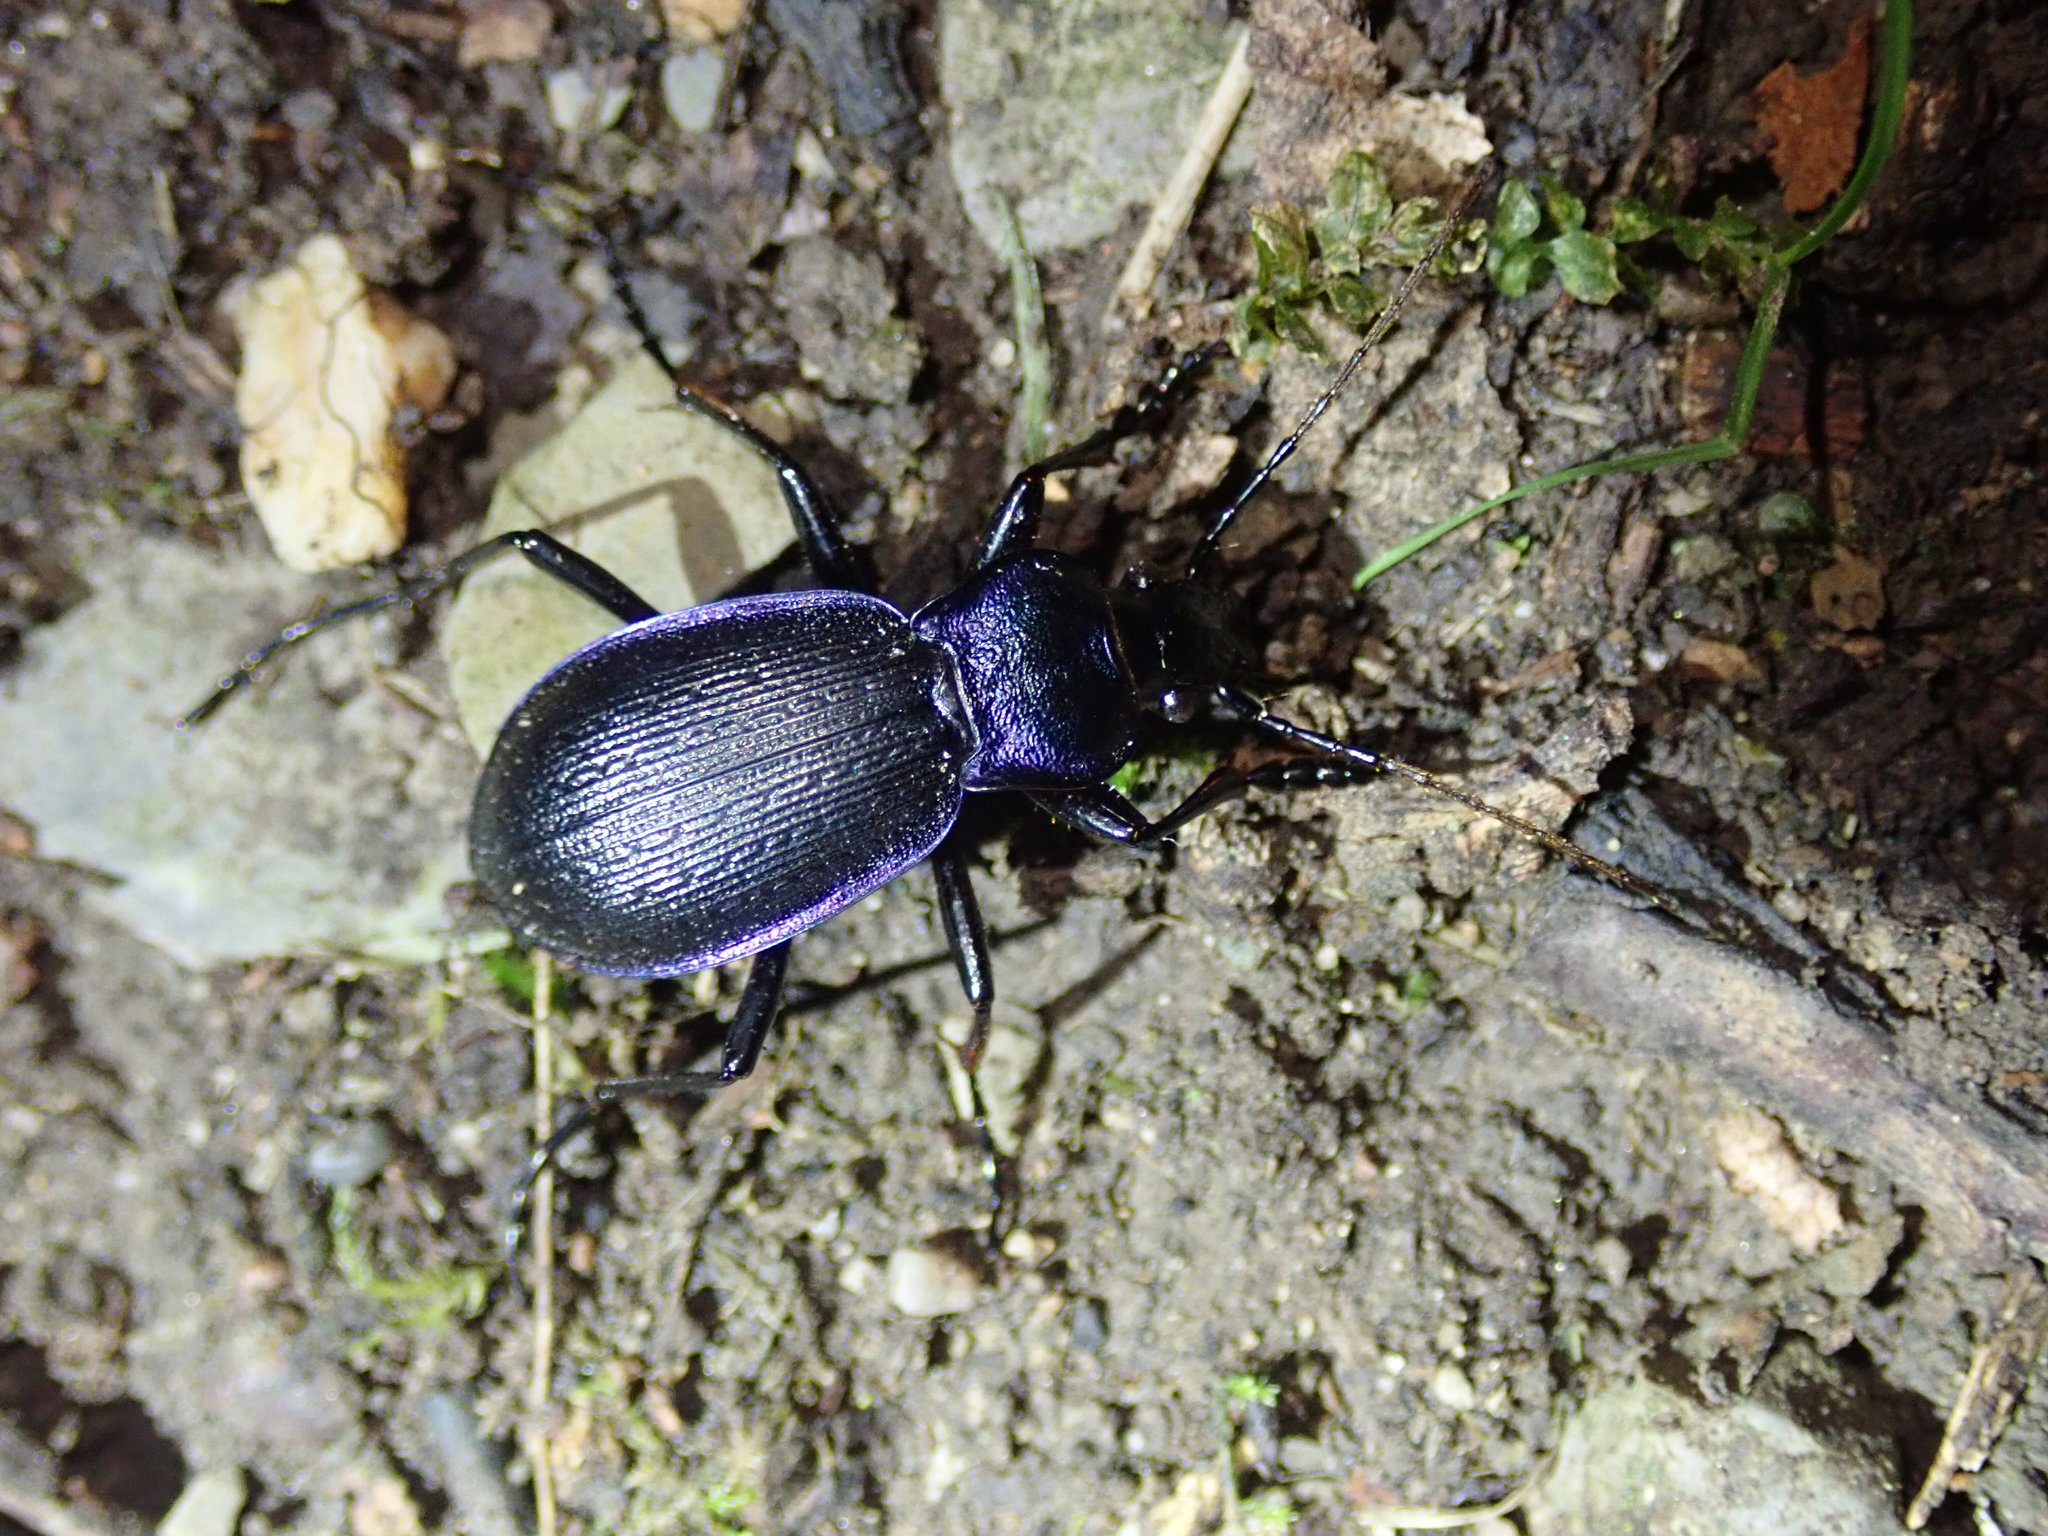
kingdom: Animalia
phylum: Arthropoda
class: Insecta
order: Coleoptera
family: Carabidae
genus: Carabus
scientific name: Carabus problematicus
